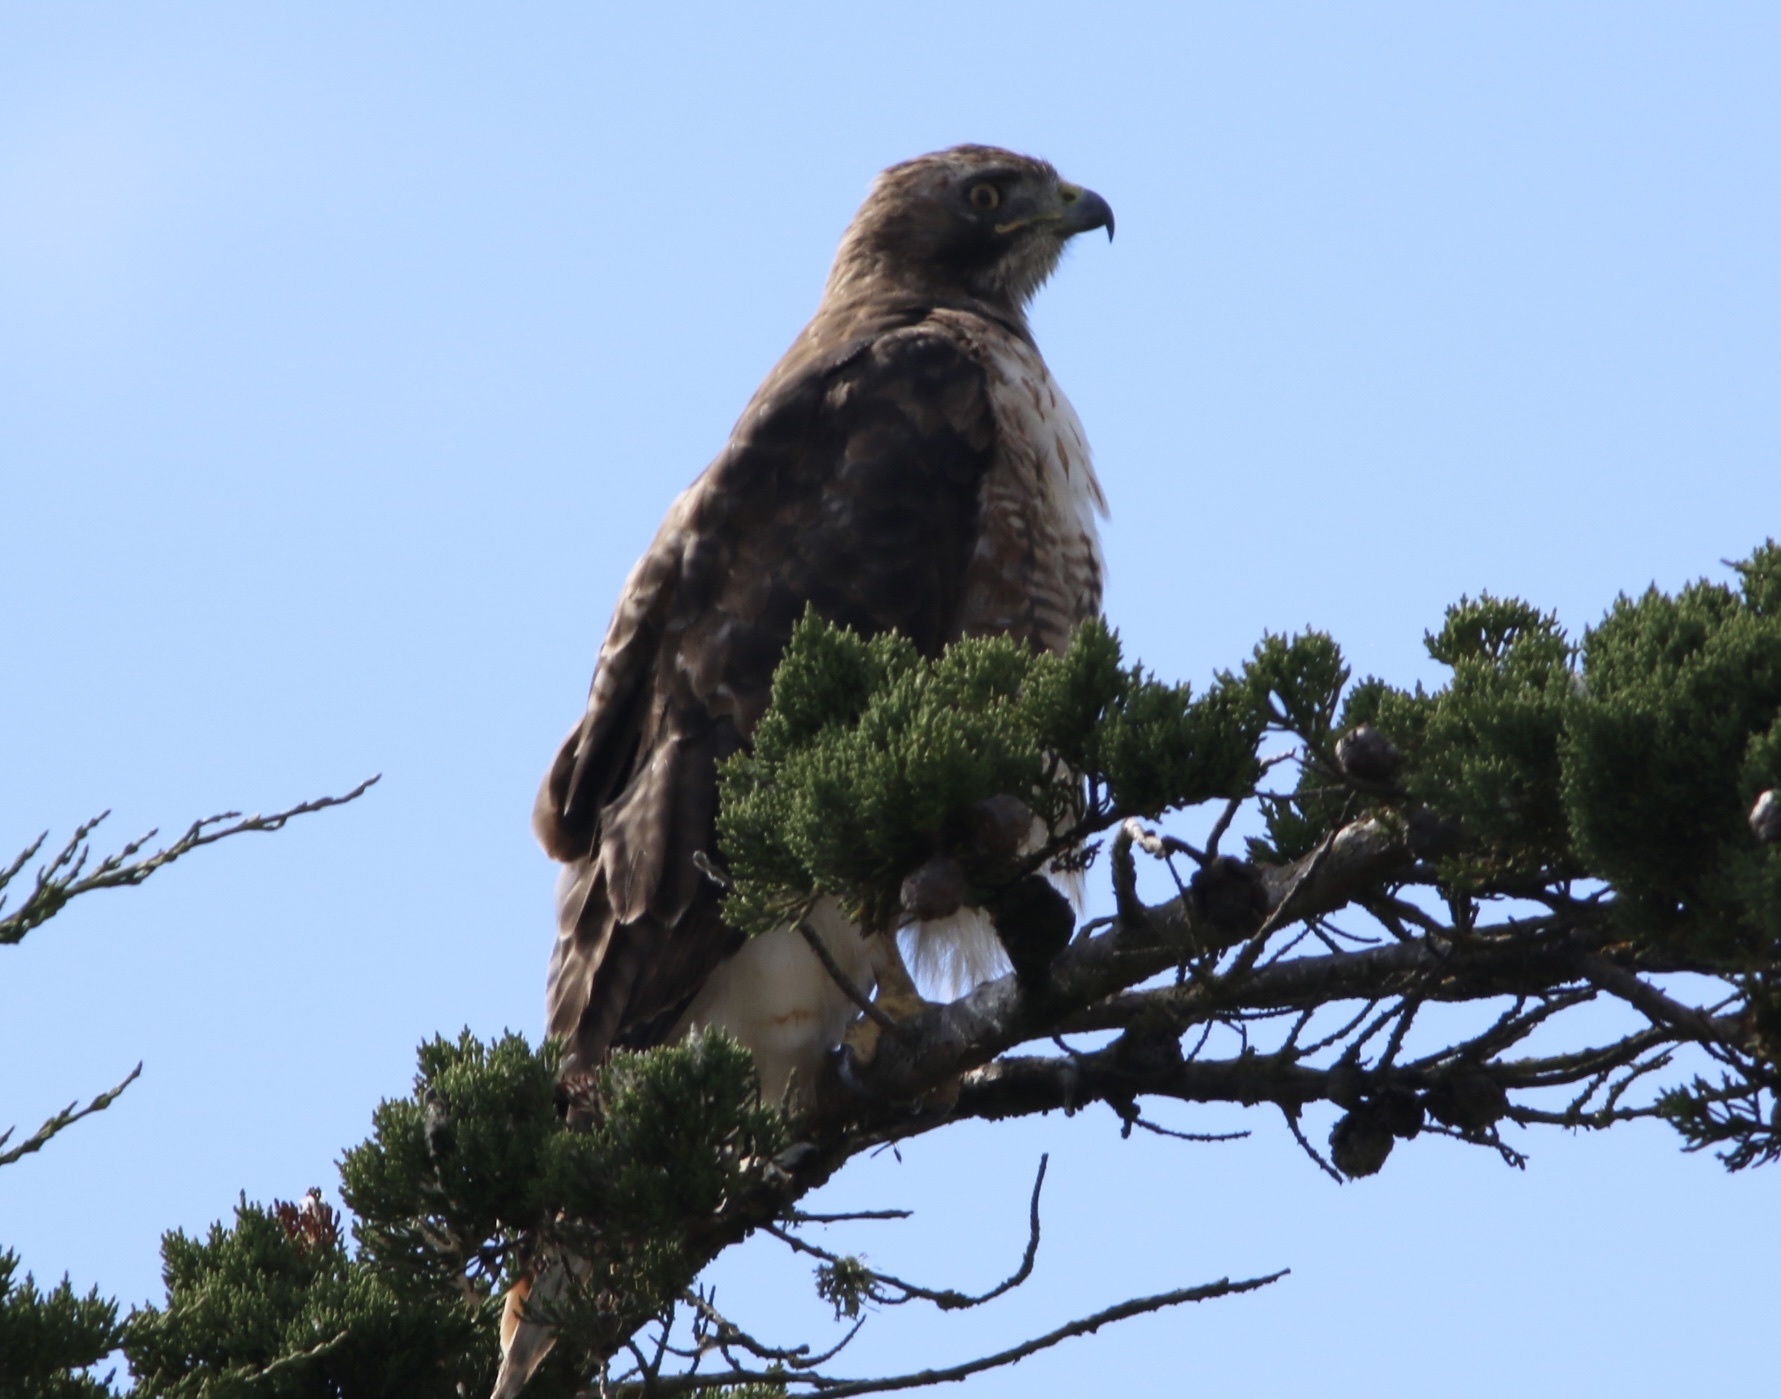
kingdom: Animalia
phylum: Chordata
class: Aves
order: Accipitriformes
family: Accipitridae
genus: Buteo
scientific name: Buteo jamaicensis
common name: Red-tailed hawk
